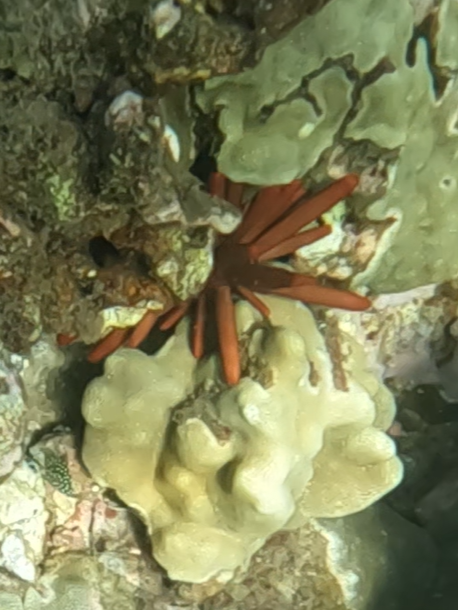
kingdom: Animalia
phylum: Echinodermata
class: Echinoidea
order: Camarodonta
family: Echinometridae
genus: Heterocentrotus
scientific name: Heterocentrotus mamillatus
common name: Slate pencil urchin
